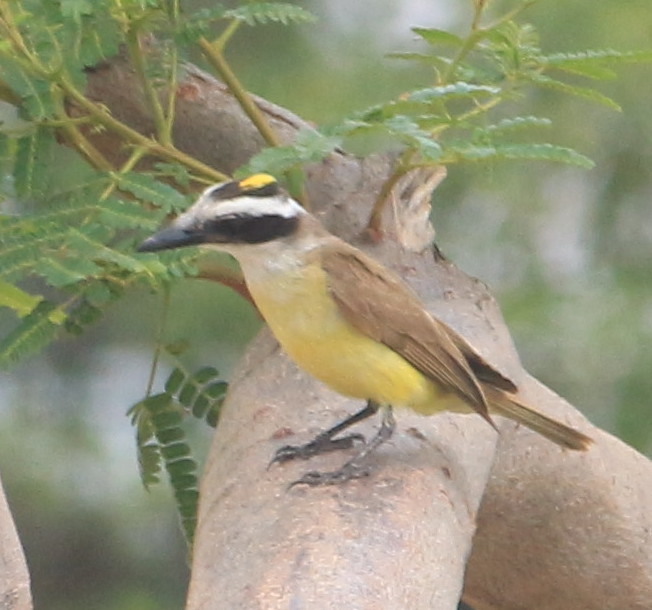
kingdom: Animalia
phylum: Chordata
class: Aves
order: Passeriformes
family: Tyrannidae
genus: Pitangus
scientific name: Pitangus sulphuratus
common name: Great kiskadee
